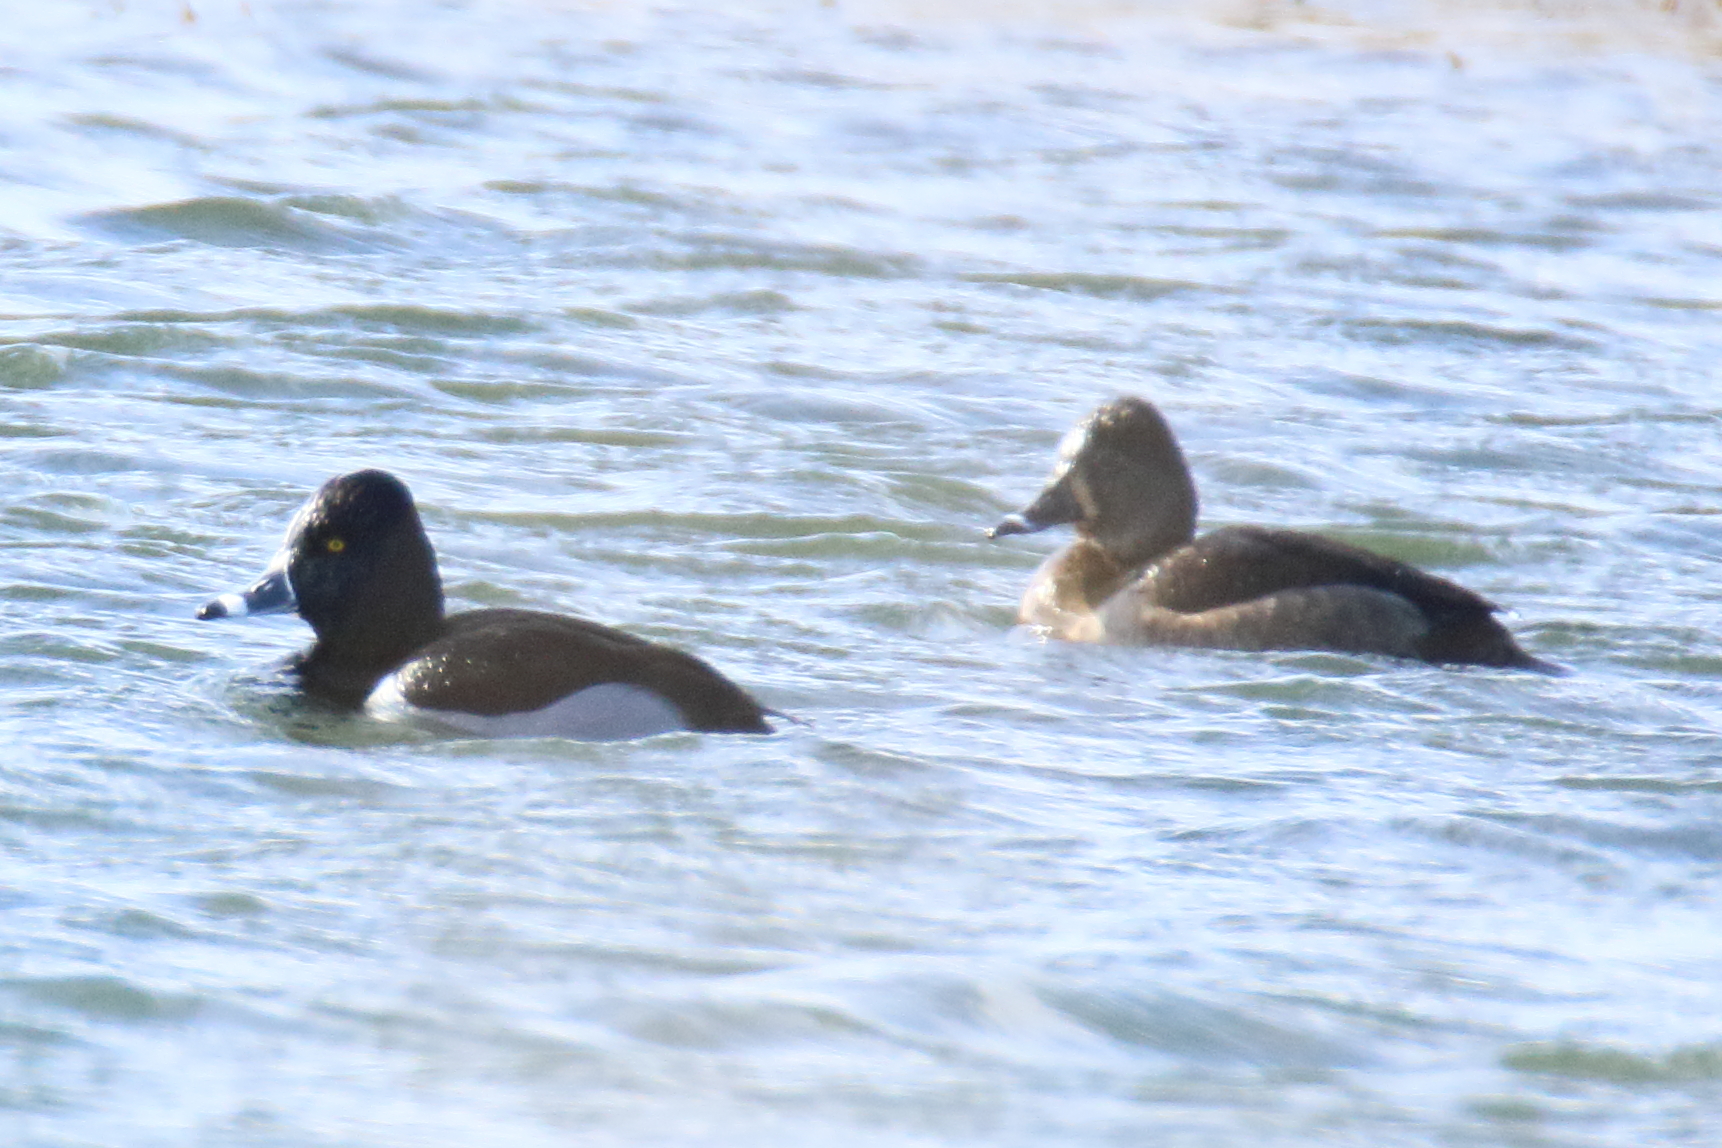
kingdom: Animalia
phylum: Chordata
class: Aves
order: Anseriformes
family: Anatidae
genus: Aythya
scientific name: Aythya collaris
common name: Ring-necked duck
